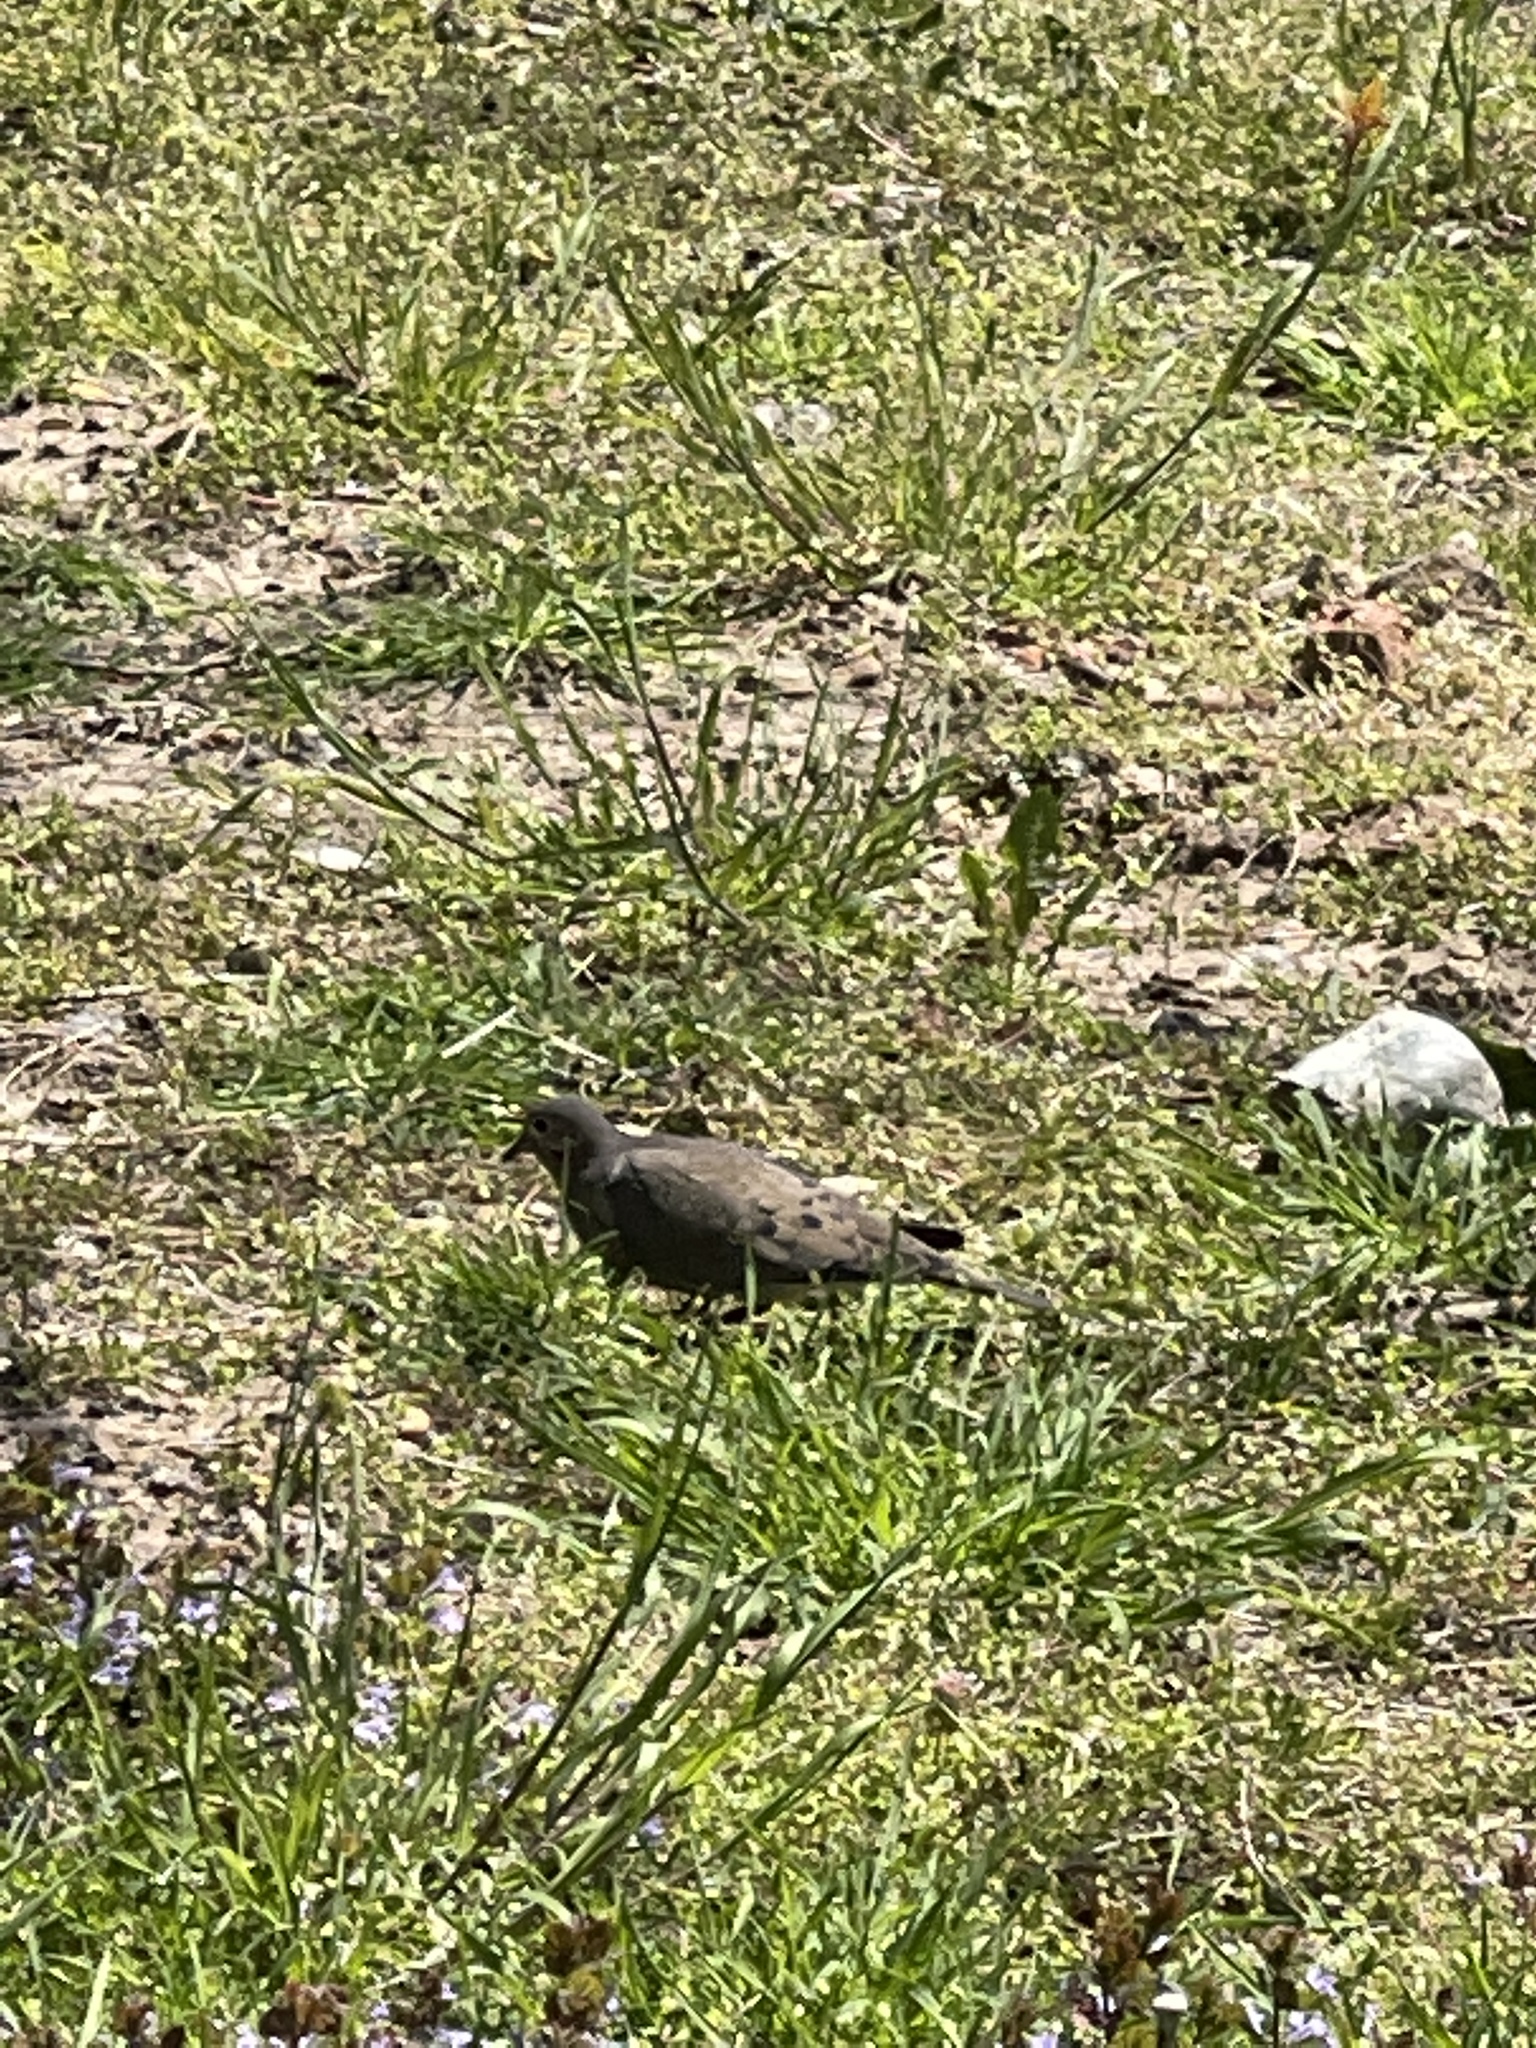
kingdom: Animalia
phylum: Chordata
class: Aves
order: Columbiformes
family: Columbidae
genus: Zenaida
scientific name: Zenaida macroura
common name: Mourning dove
